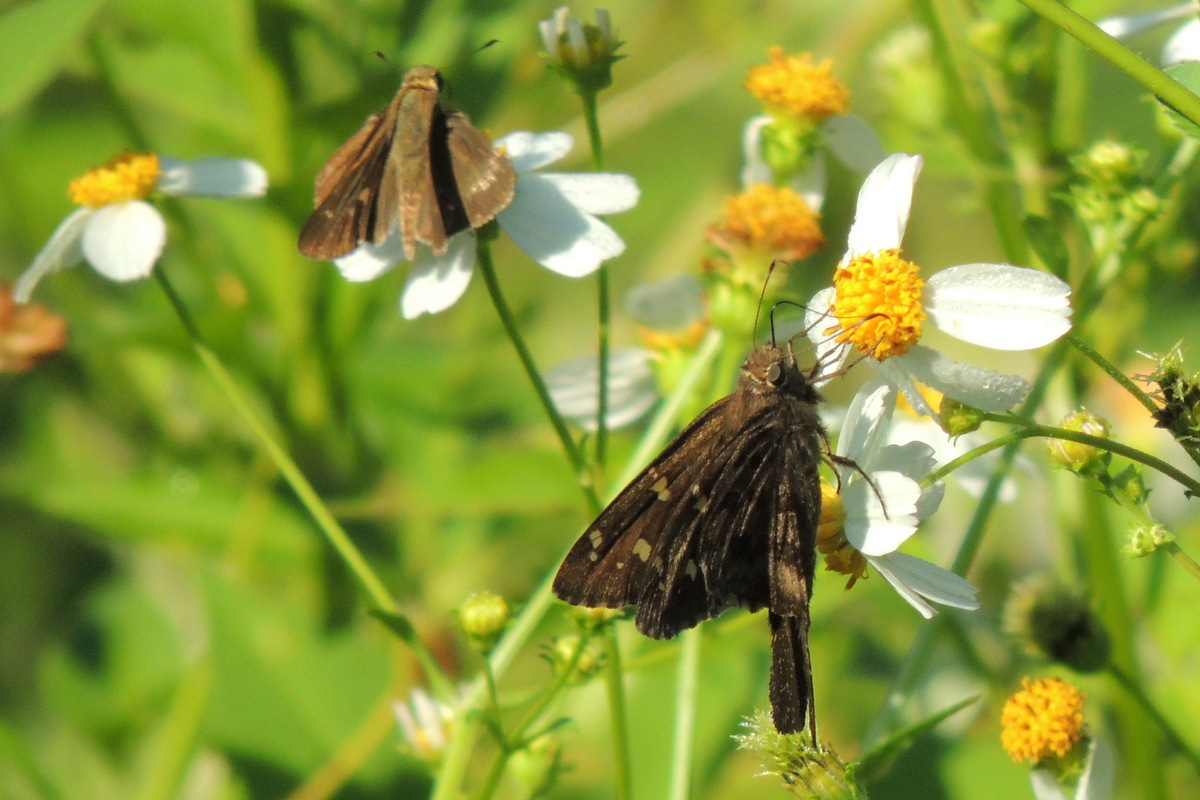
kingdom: Animalia
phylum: Arthropoda
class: Insecta
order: Lepidoptera
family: Hesperiidae
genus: Thorybes
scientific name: Thorybes
